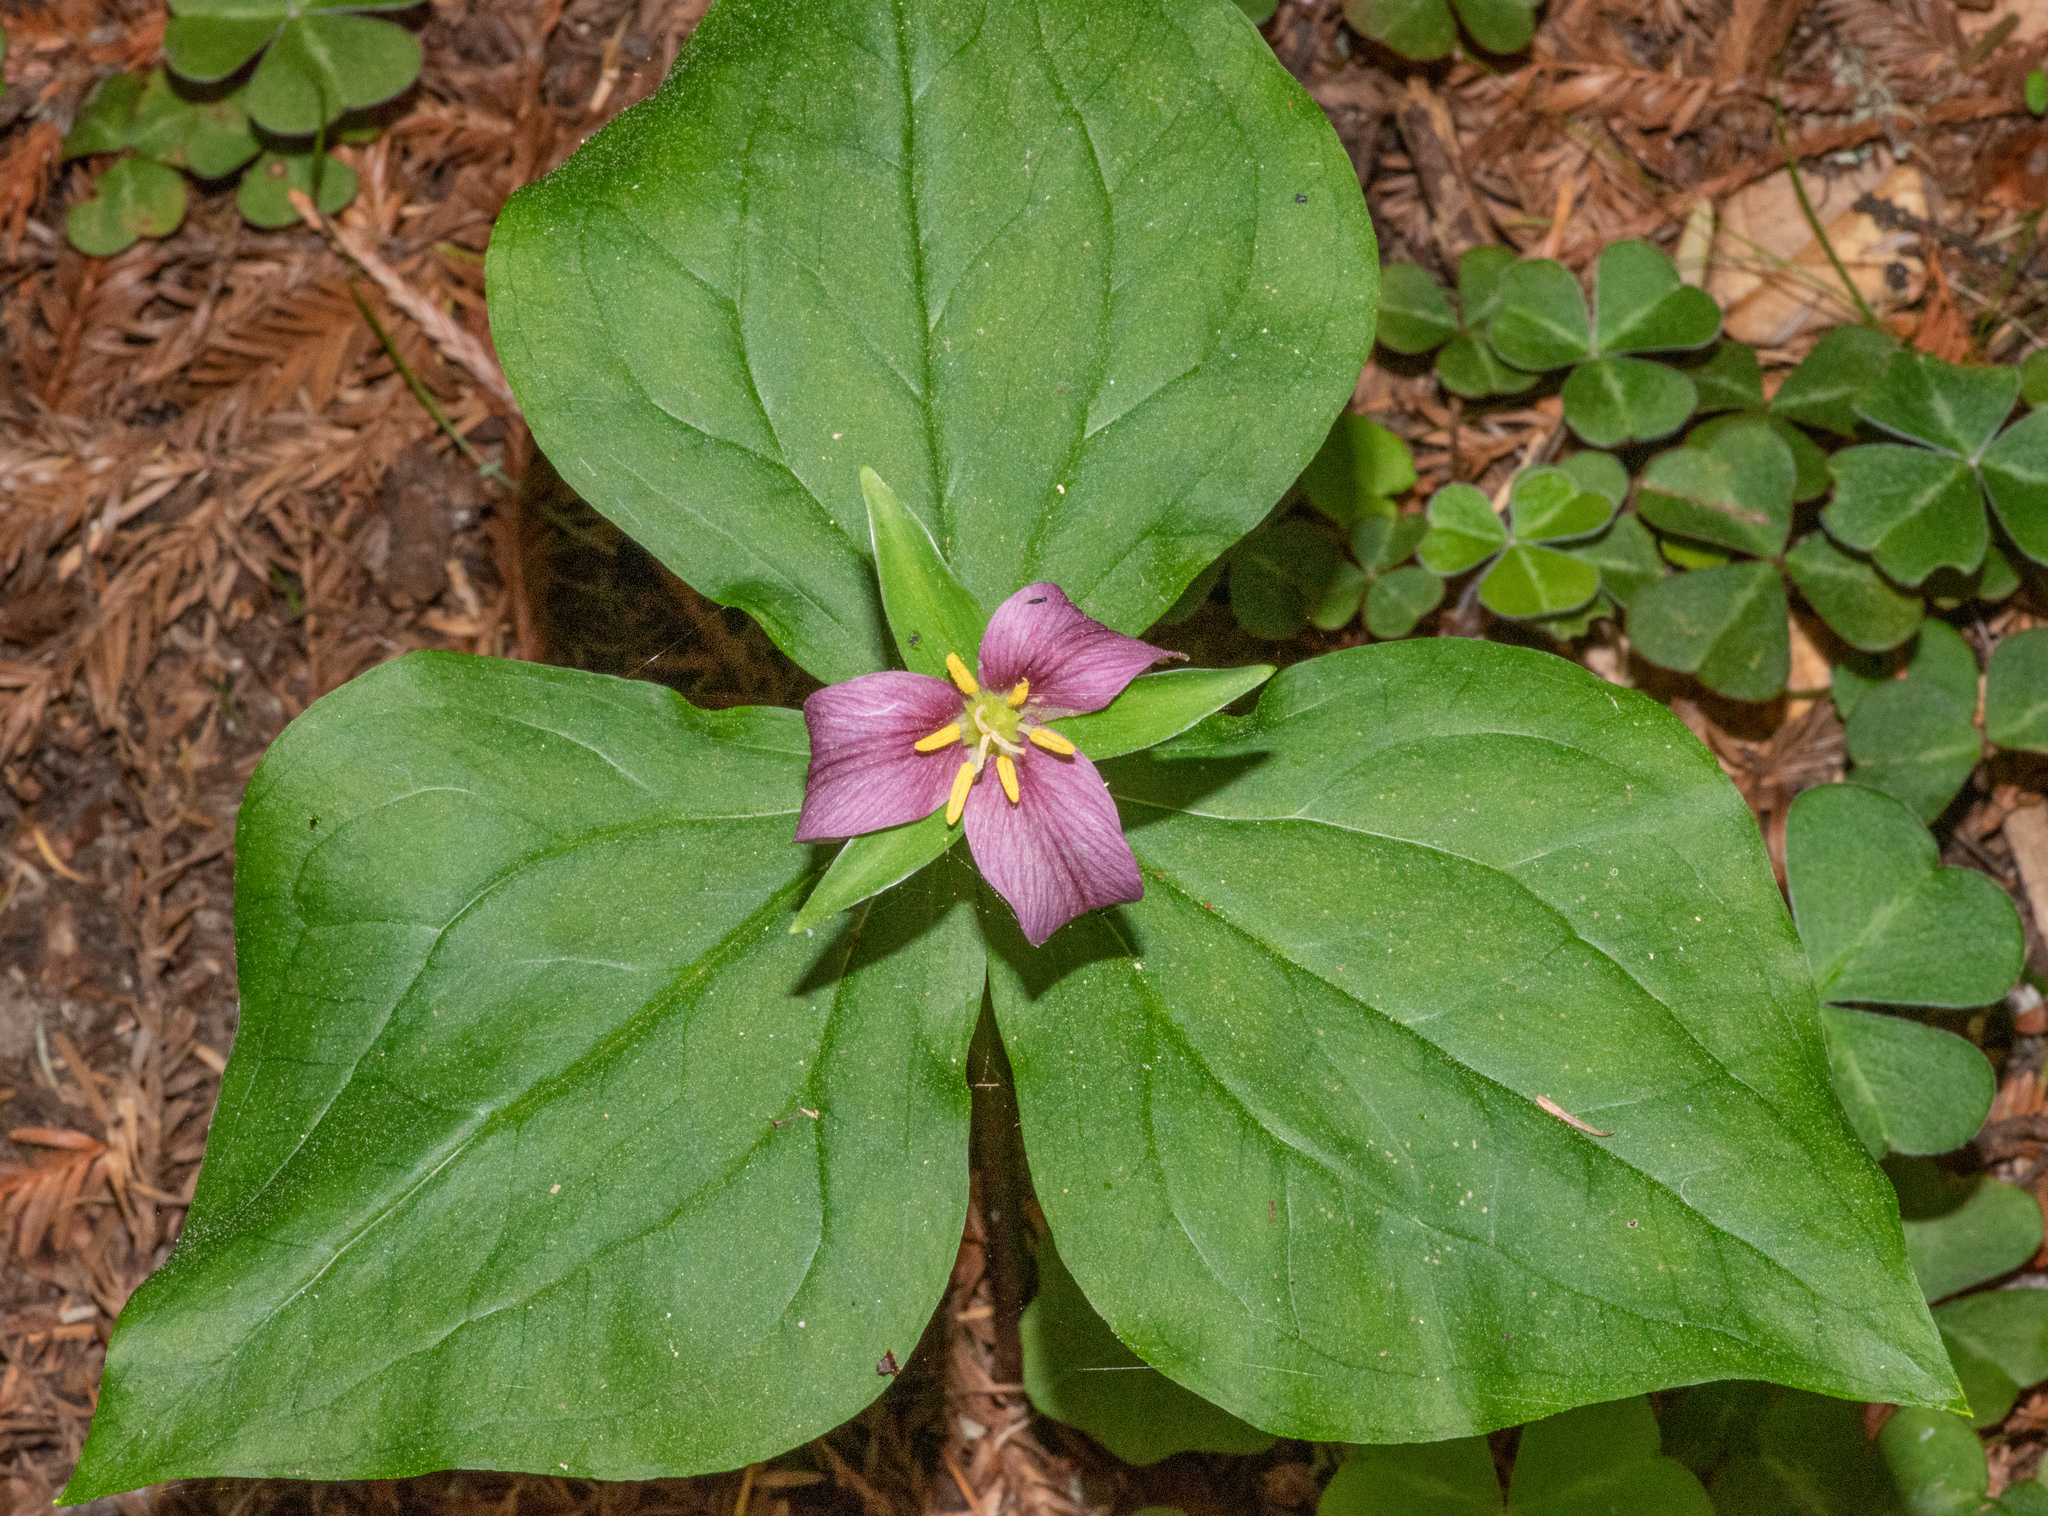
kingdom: Plantae
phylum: Tracheophyta
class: Liliopsida
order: Liliales
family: Melanthiaceae
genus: Trillium
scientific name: Trillium ovatum
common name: Pacific trillium
